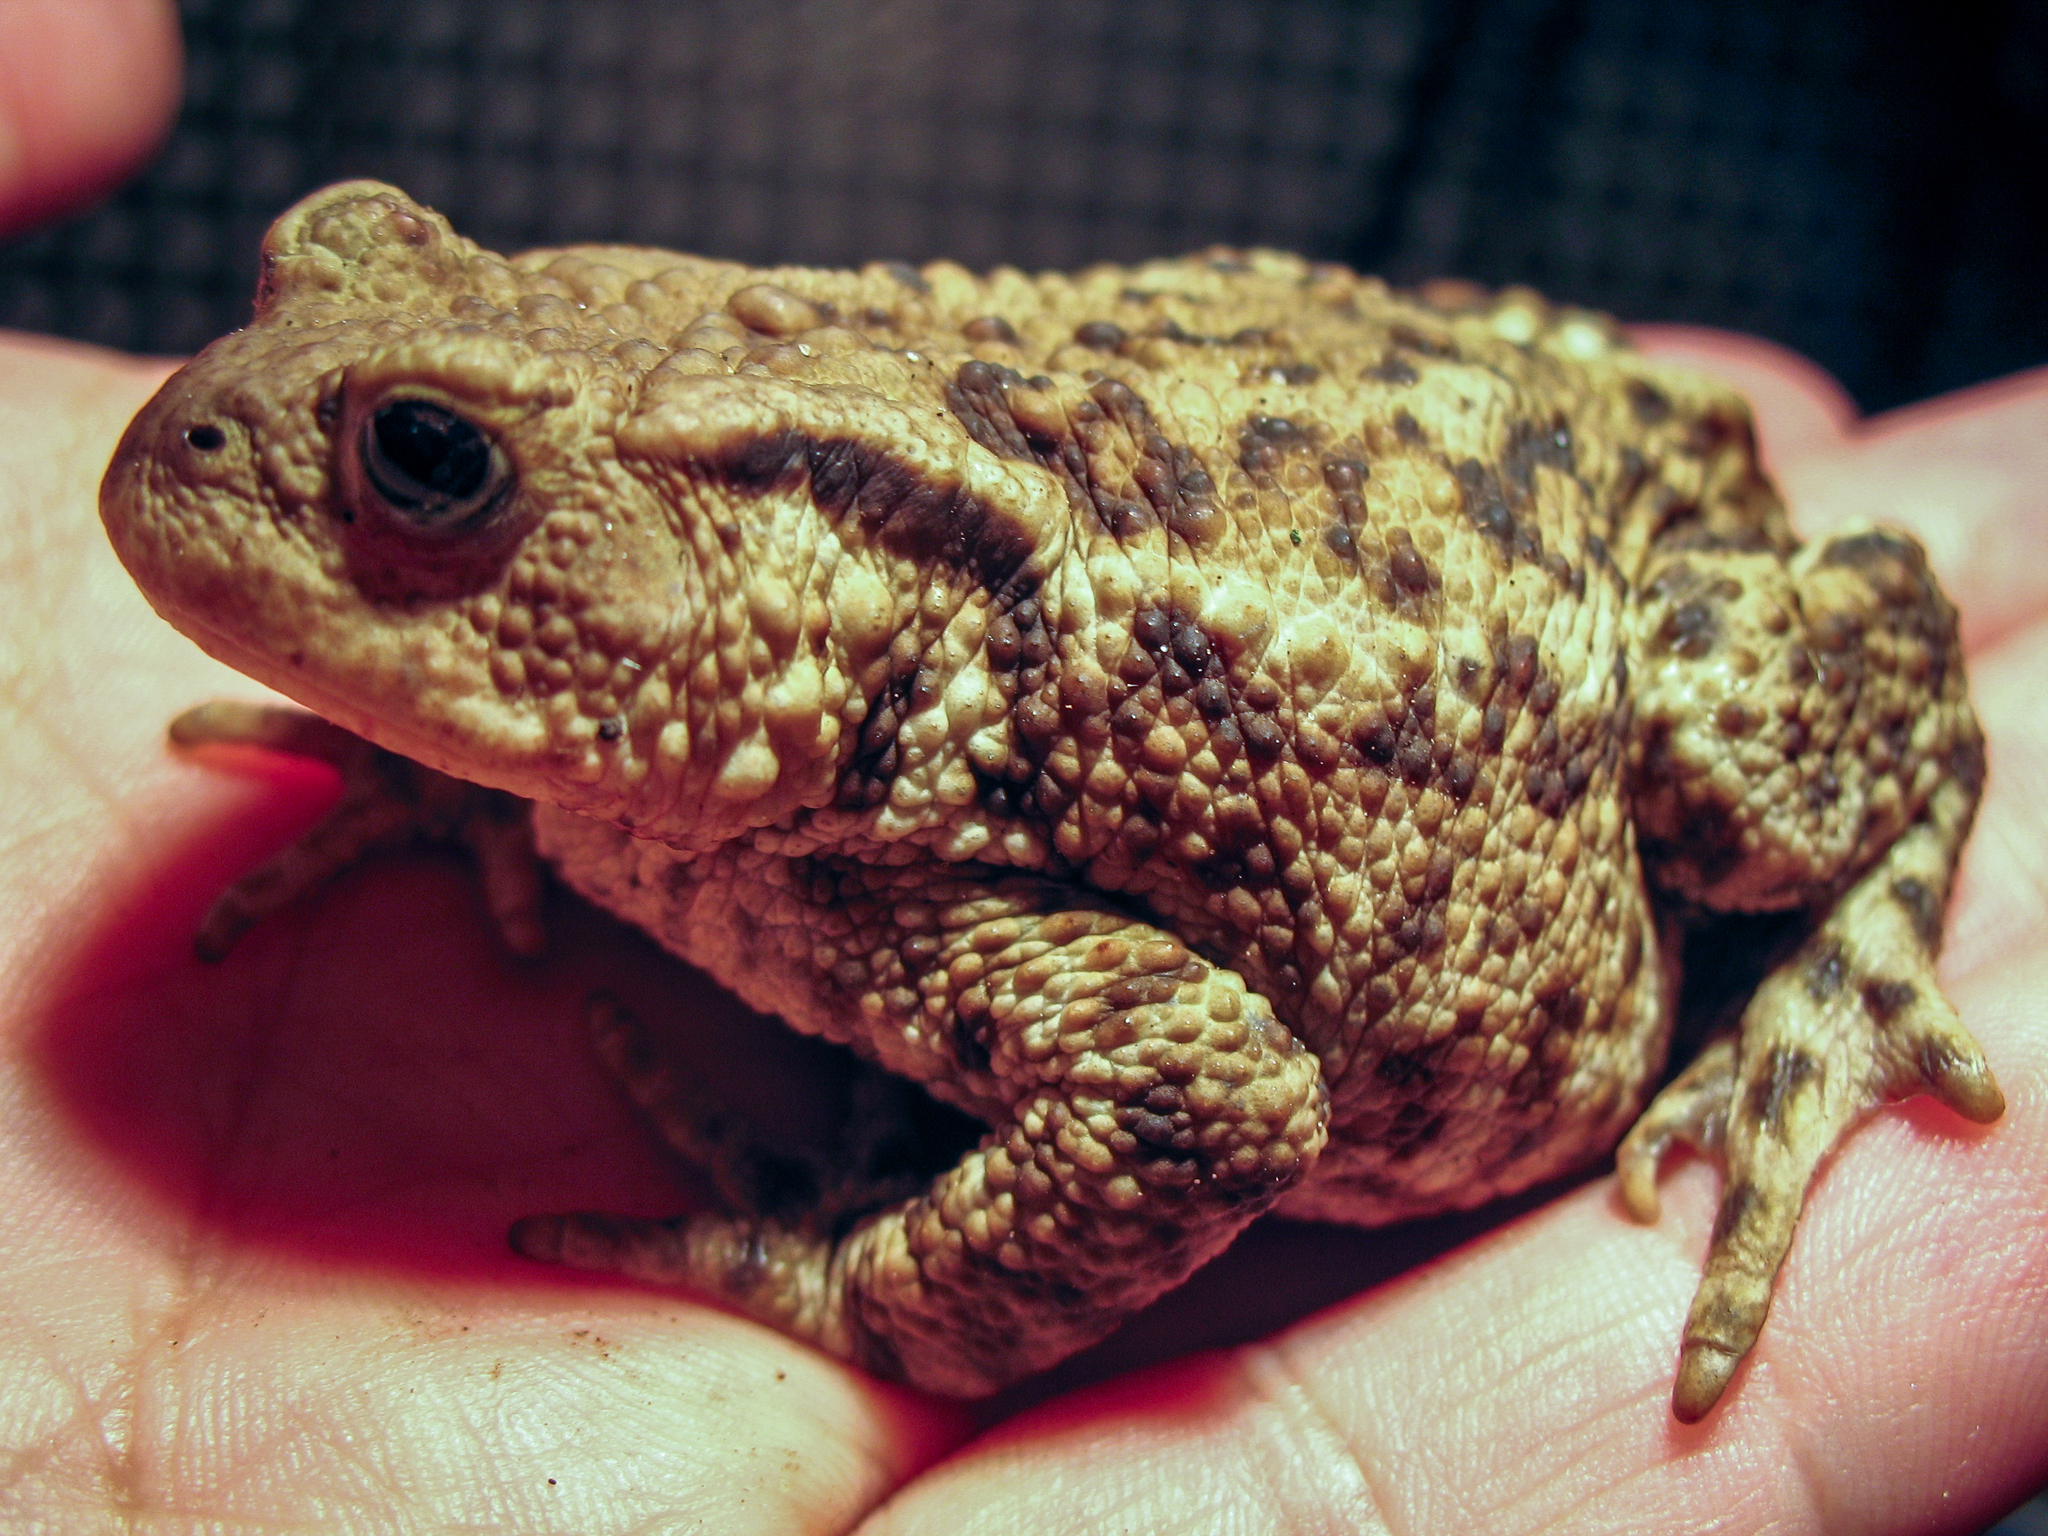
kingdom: Animalia
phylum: Chordata
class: Amphibia
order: Anura
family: Bufonidae
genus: Bufo
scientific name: Bufo bufo
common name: Common toad
